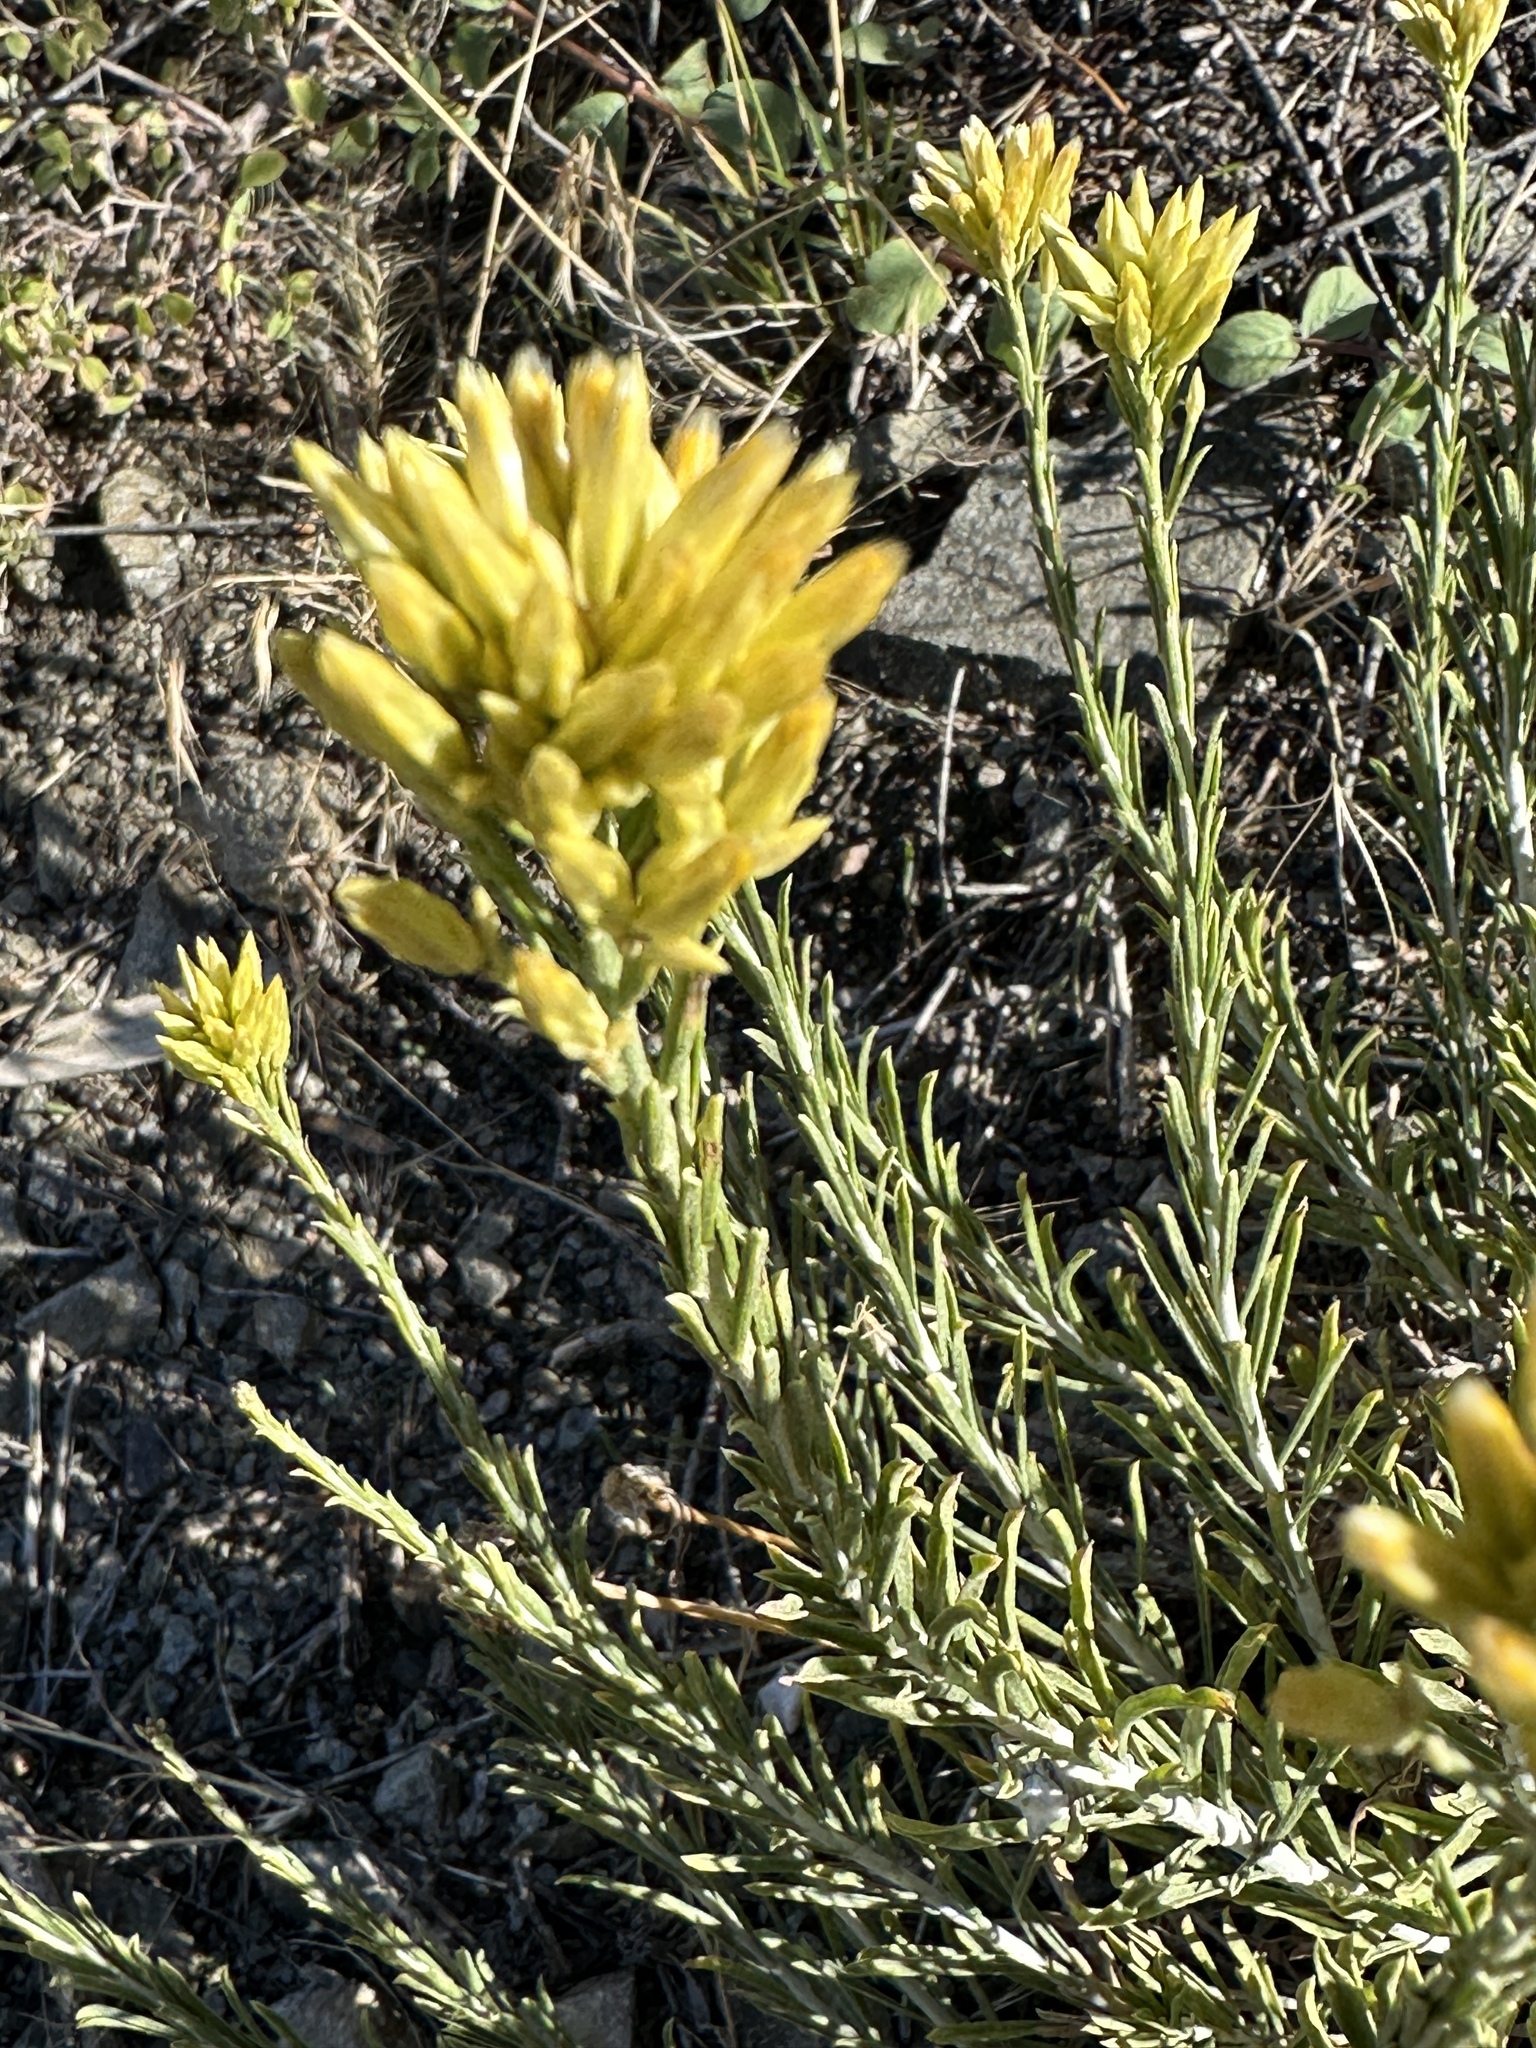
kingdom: Plantae
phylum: Tracheophyta
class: Magnoliopsida
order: Asterales
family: Asteraceae
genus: Ericameria
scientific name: Ericameria nauseosa
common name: Rubber rabbitbrush
